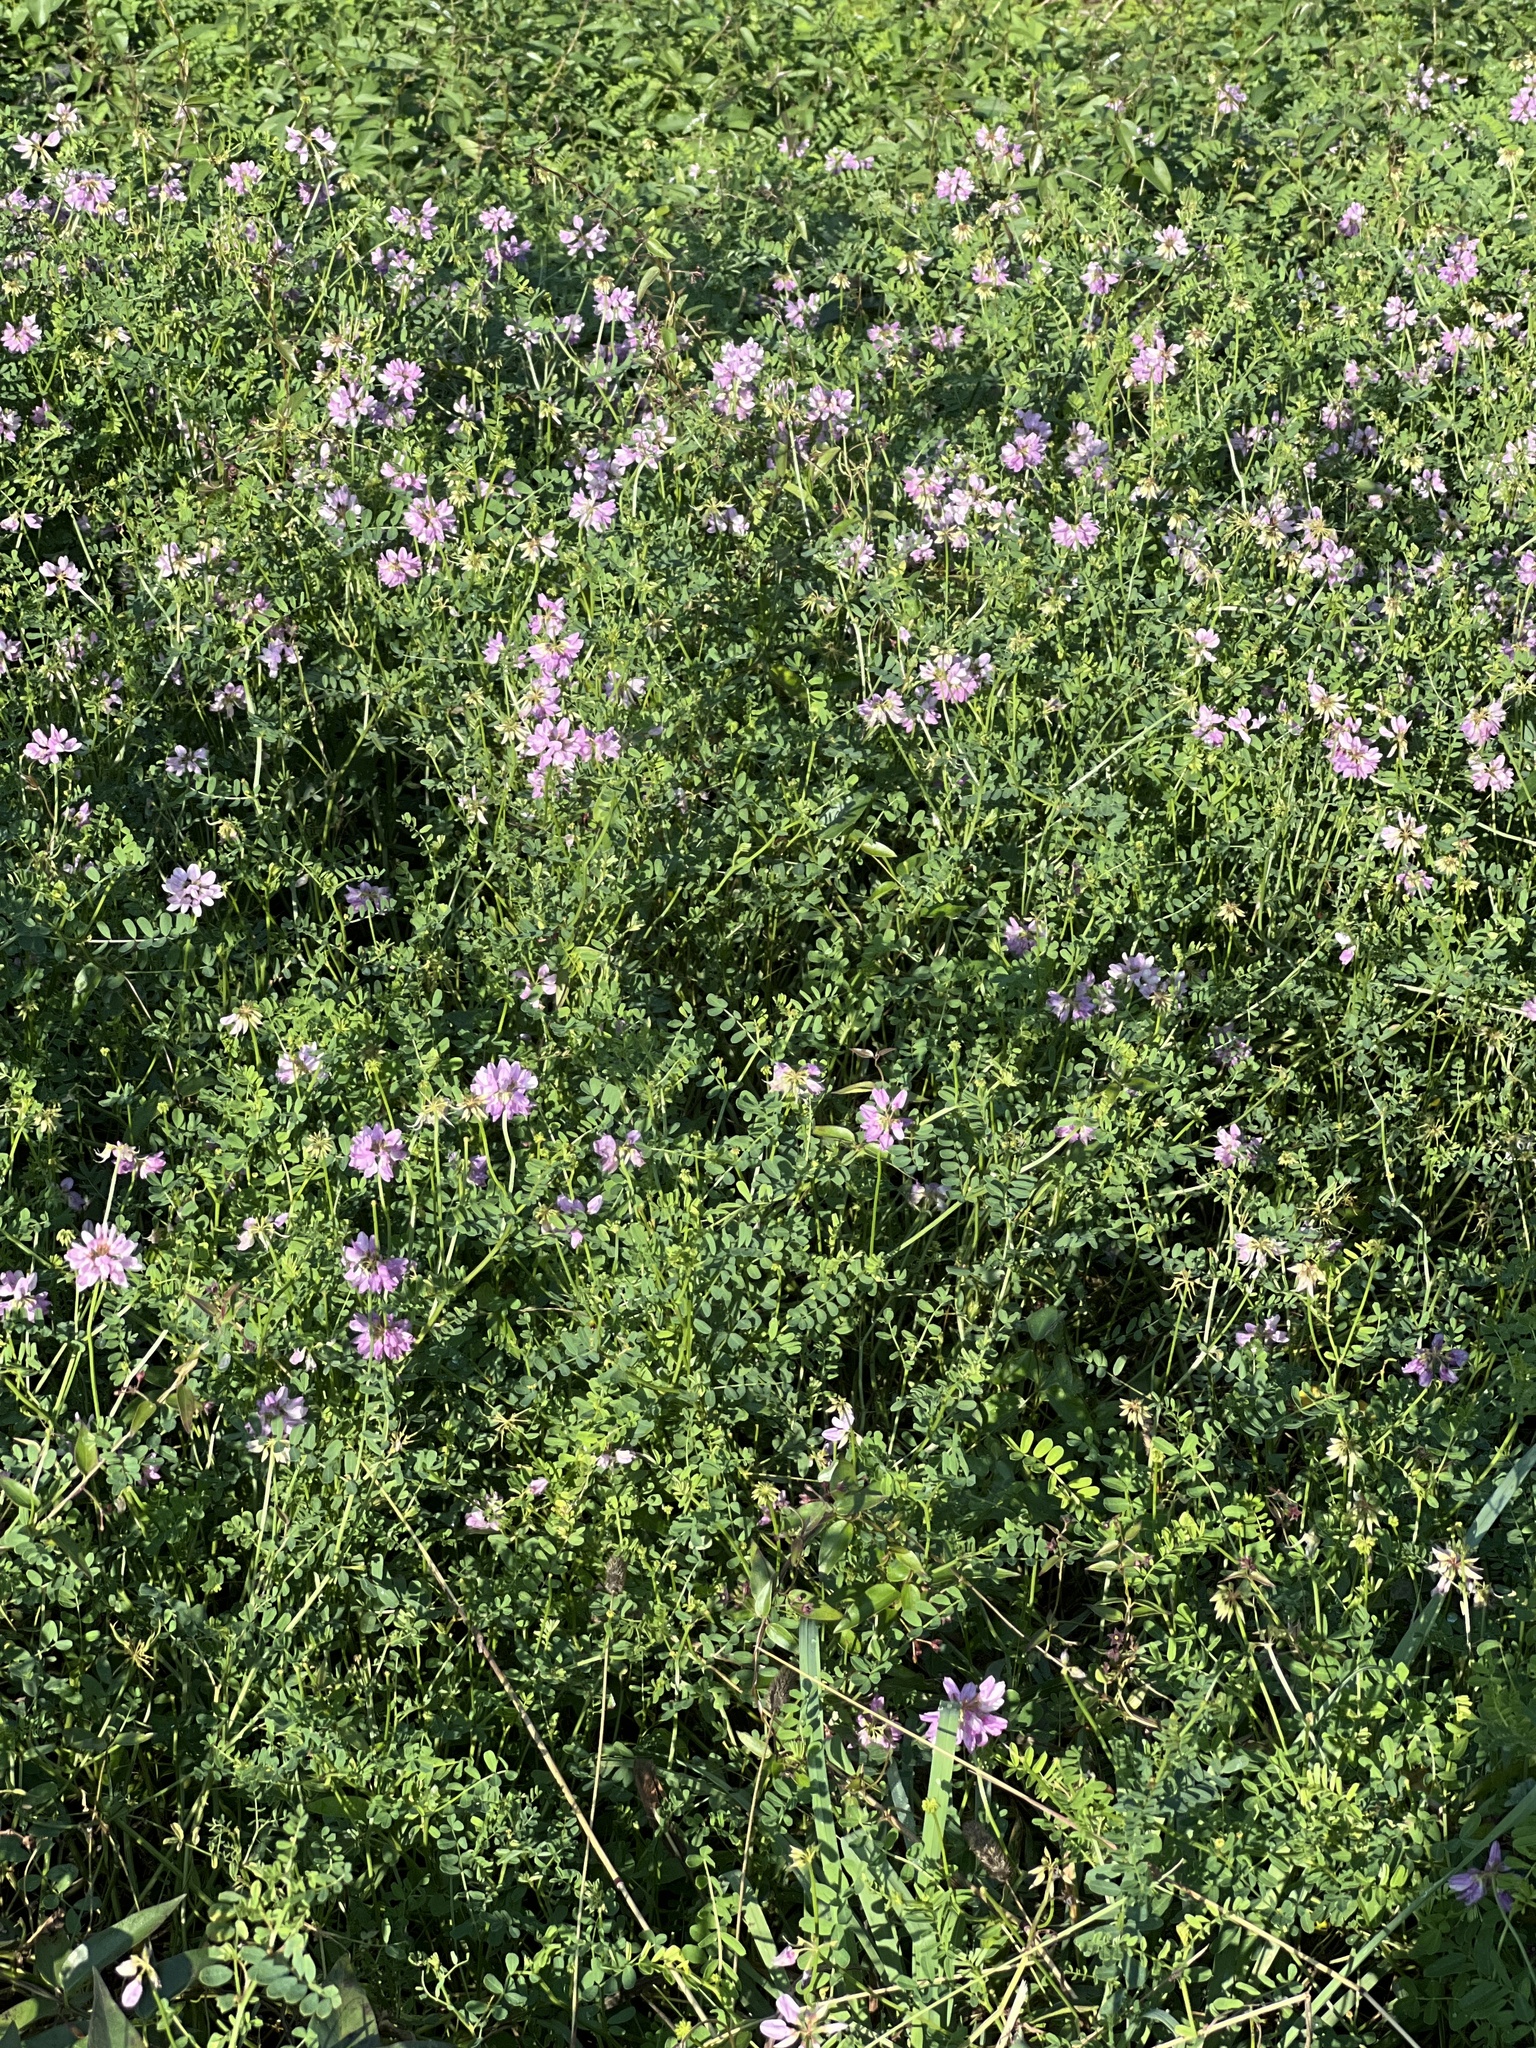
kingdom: Plantae
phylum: Tracheophyta
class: Magnoliopsida
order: Fabales
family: Fabaceae
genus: Coronilla
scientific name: Coronilla varia
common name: Crownvetch
